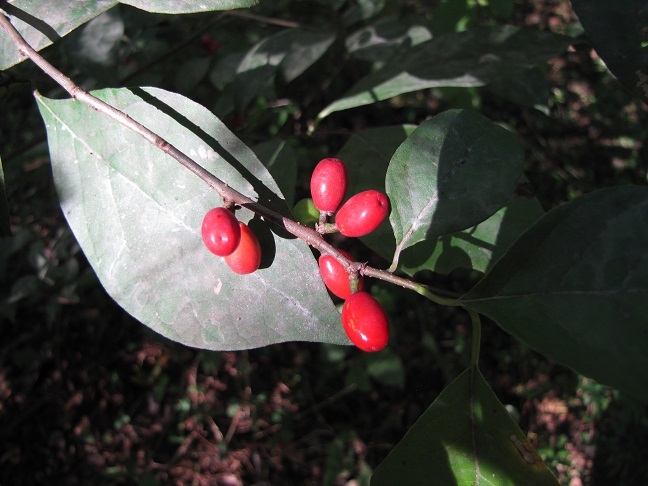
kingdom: Plantae
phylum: Tracheophyta
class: Magnoliopsida
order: Laurales
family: Lauraceae
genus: Lindera
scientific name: Lindera benzoin
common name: Spicebush
